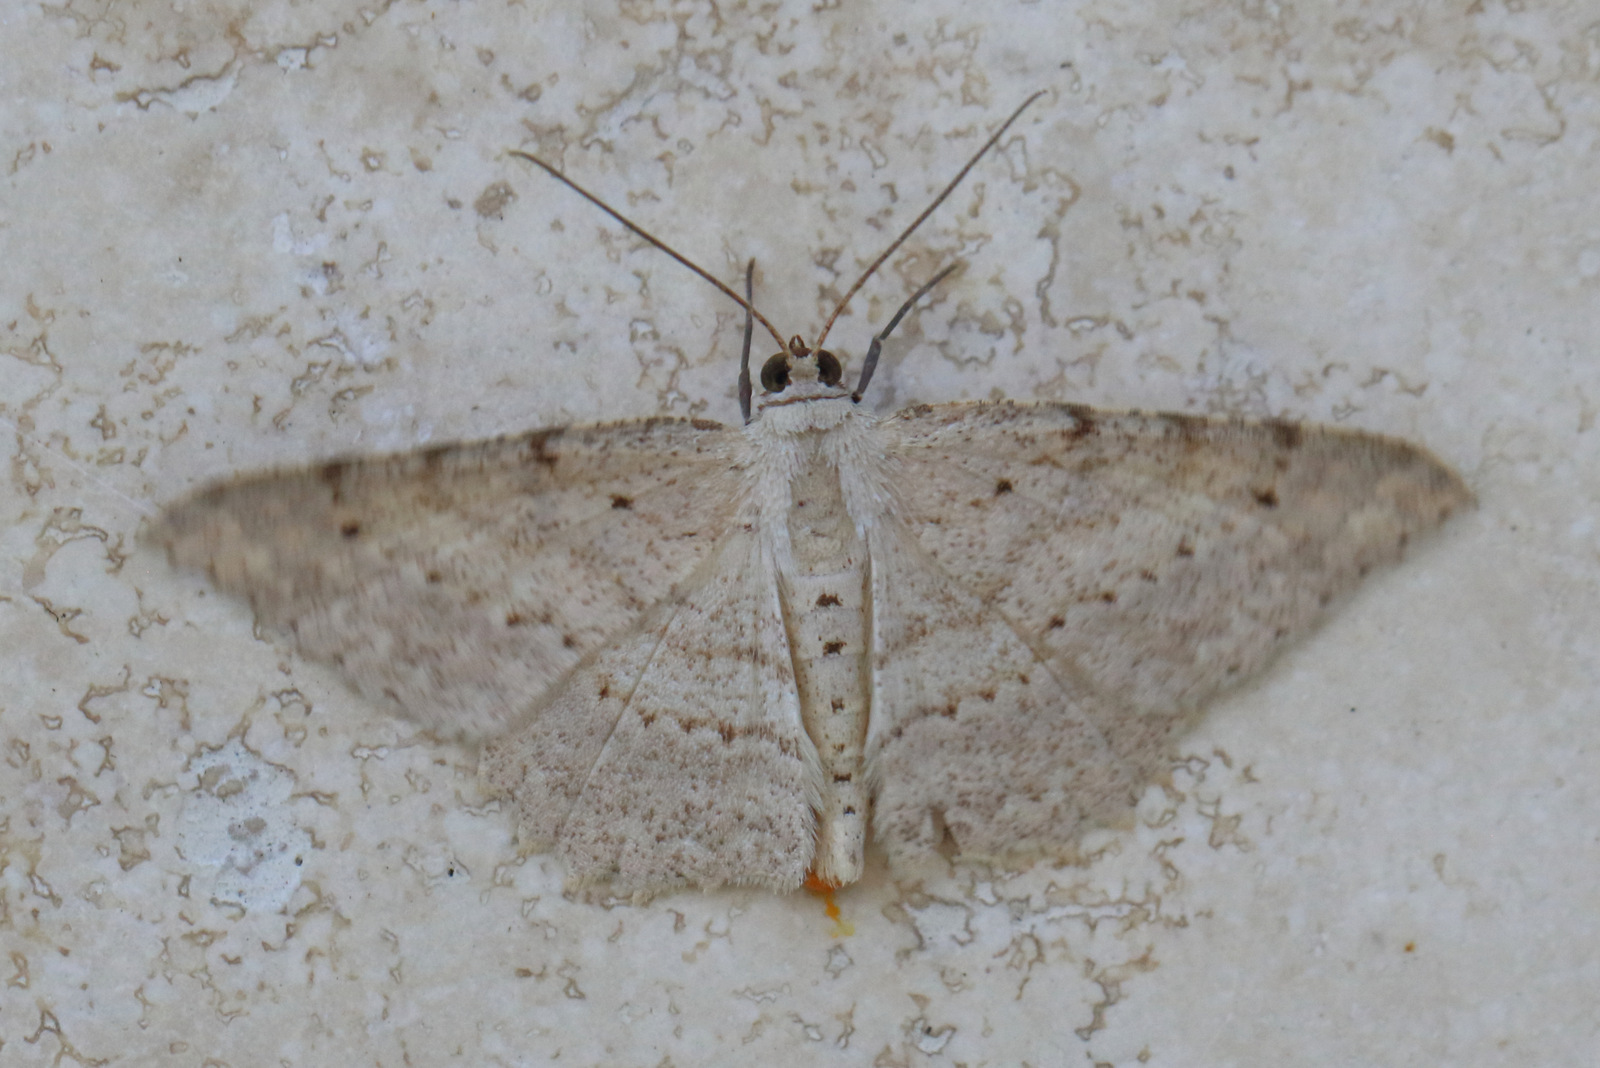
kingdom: Animalia
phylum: Arthropoda
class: Insecta
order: Lepidoptera
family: Geometridae
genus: Luxiaria
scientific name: Luxiaria ochrophara
